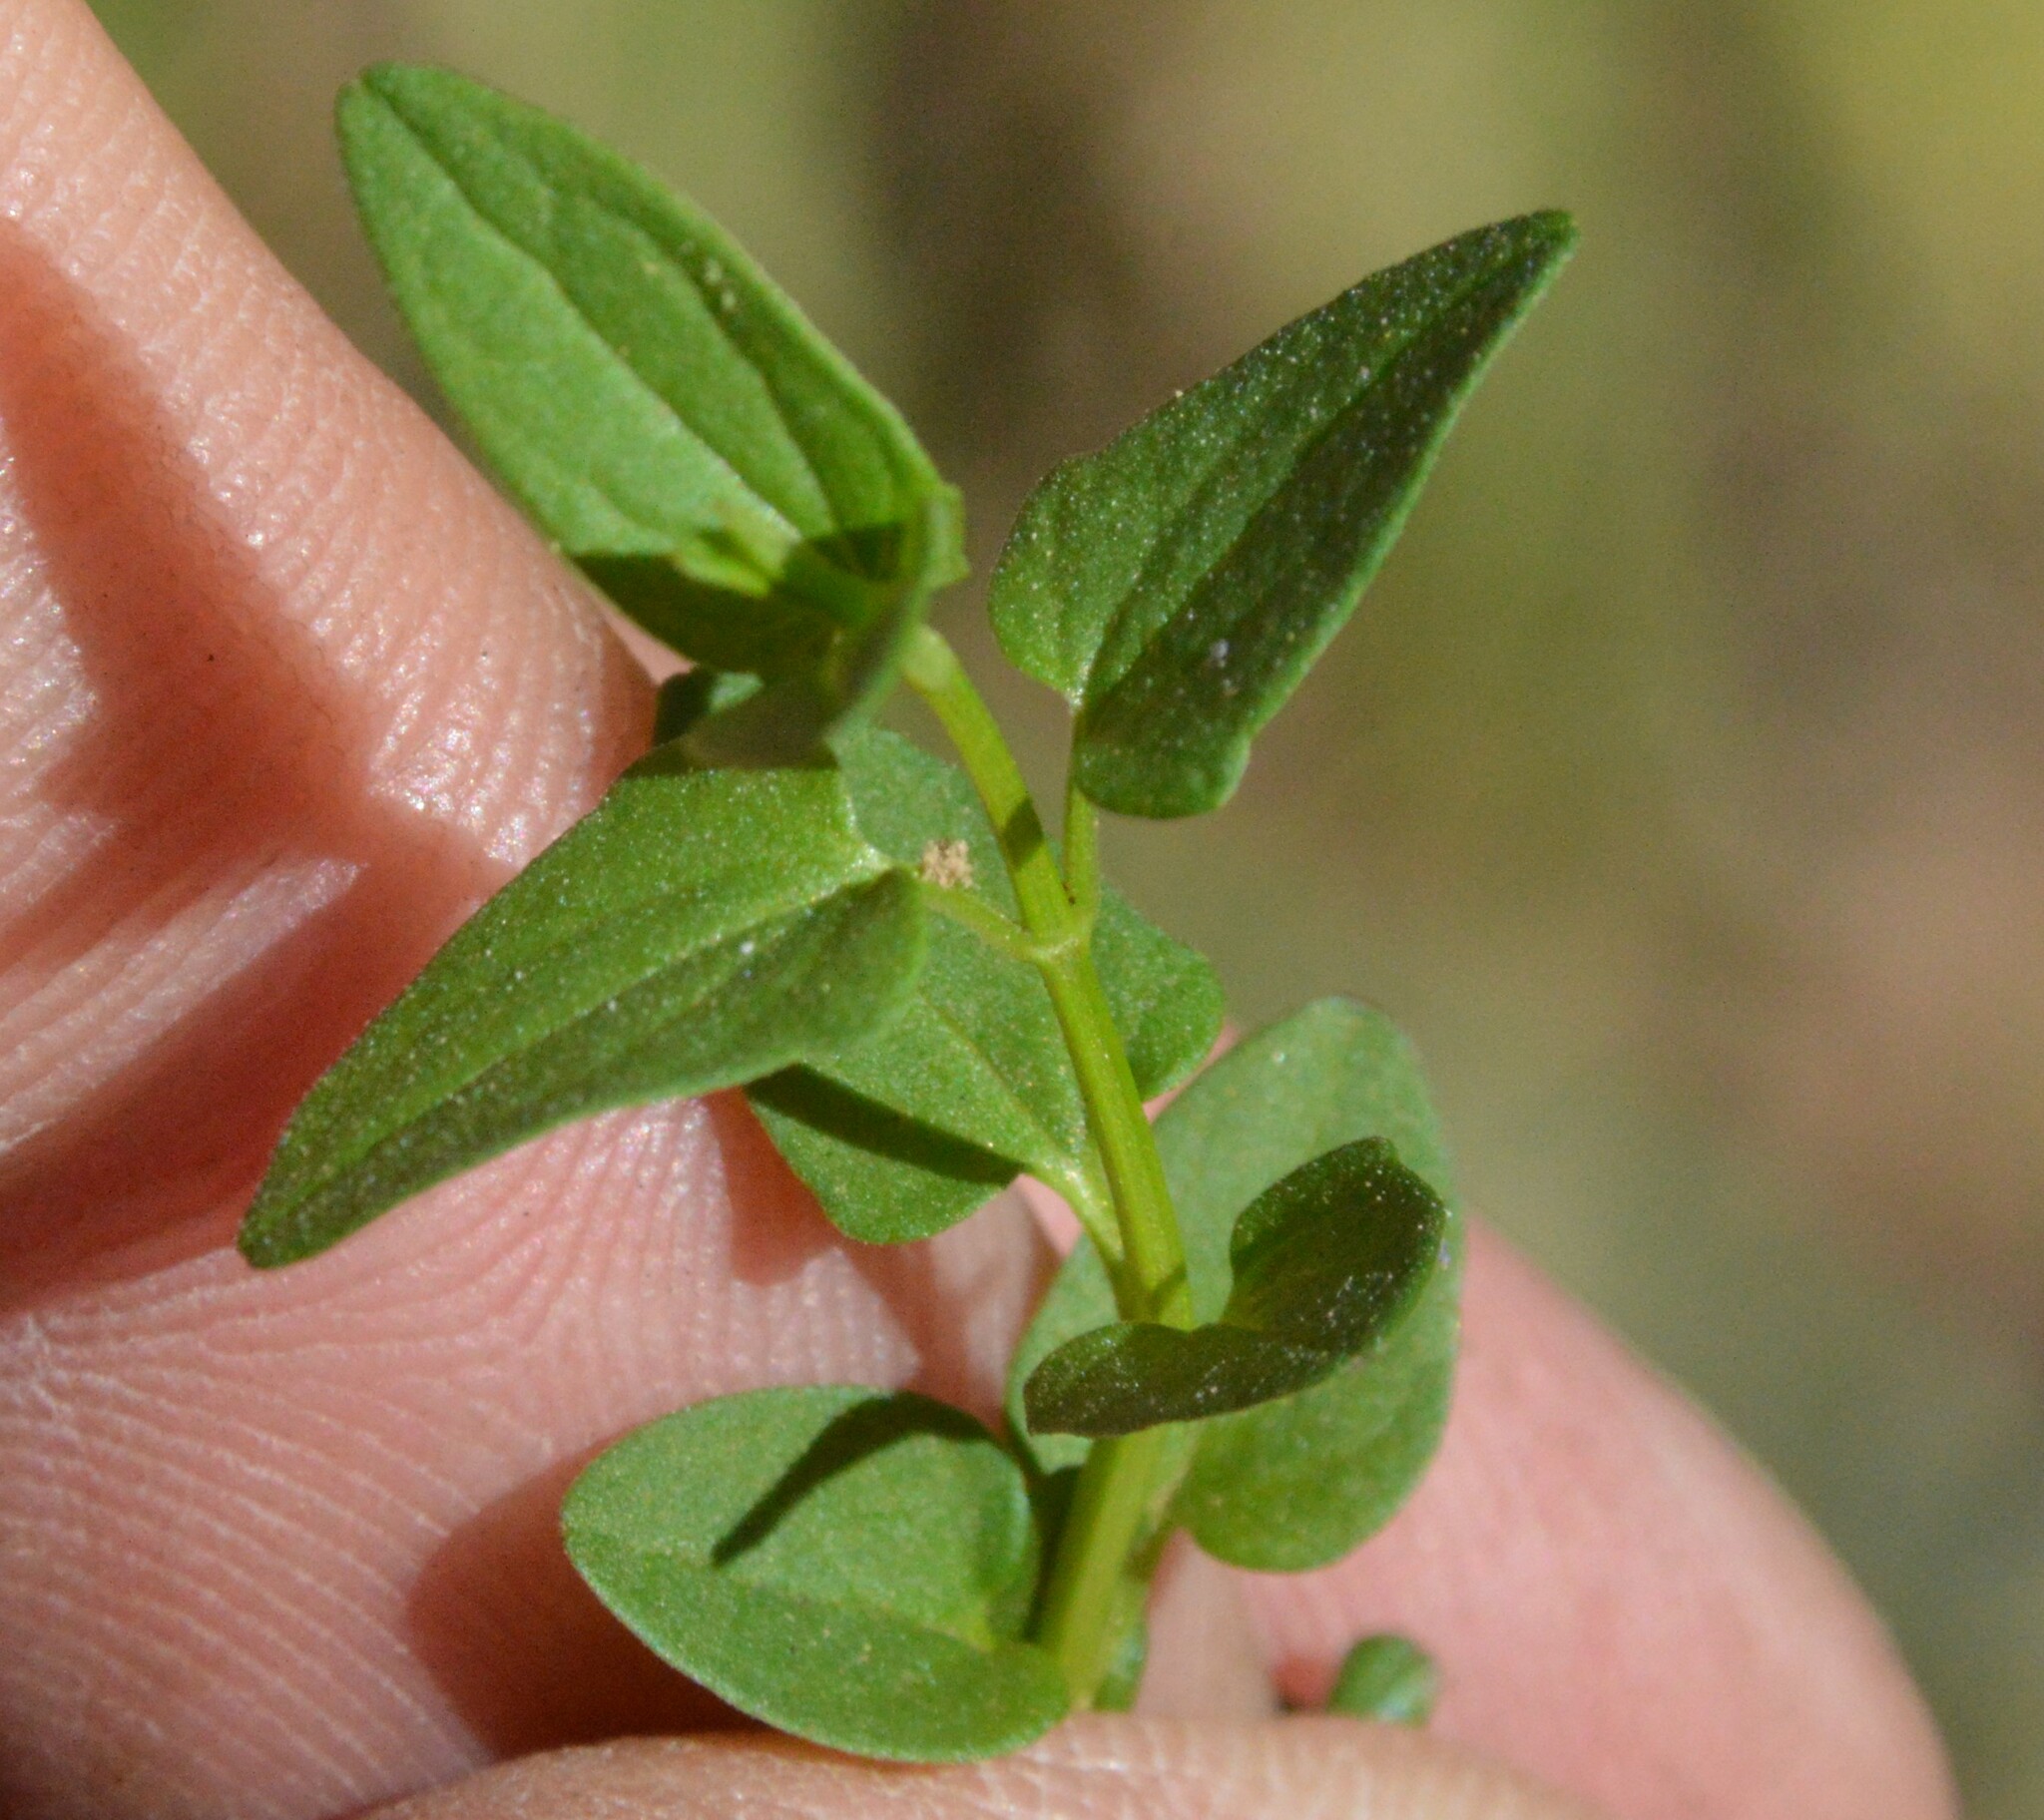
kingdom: Plantae
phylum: Tracheophyta
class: Magnoliopsida
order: Lamiales
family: Lamiaceae
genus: Scutellaria
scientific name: Scutellaria racemosa
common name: South american skullcap
